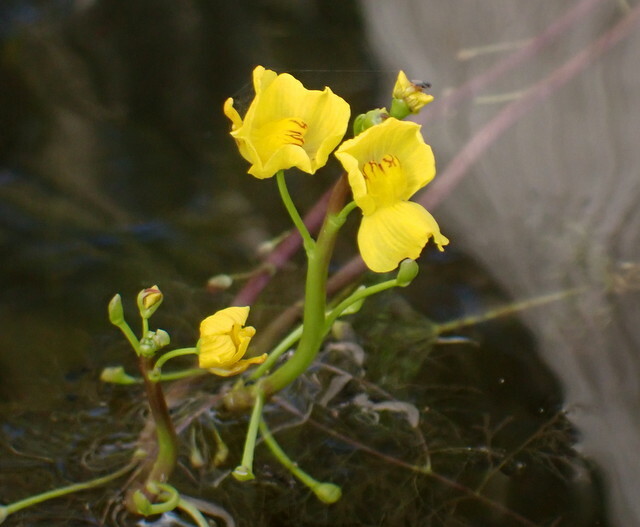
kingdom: Plantae
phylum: Tracheophyta
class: Magnoliopsida
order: Lamiales
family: Lentibulariaceae
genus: Utricularia
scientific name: Utricularia floridana
